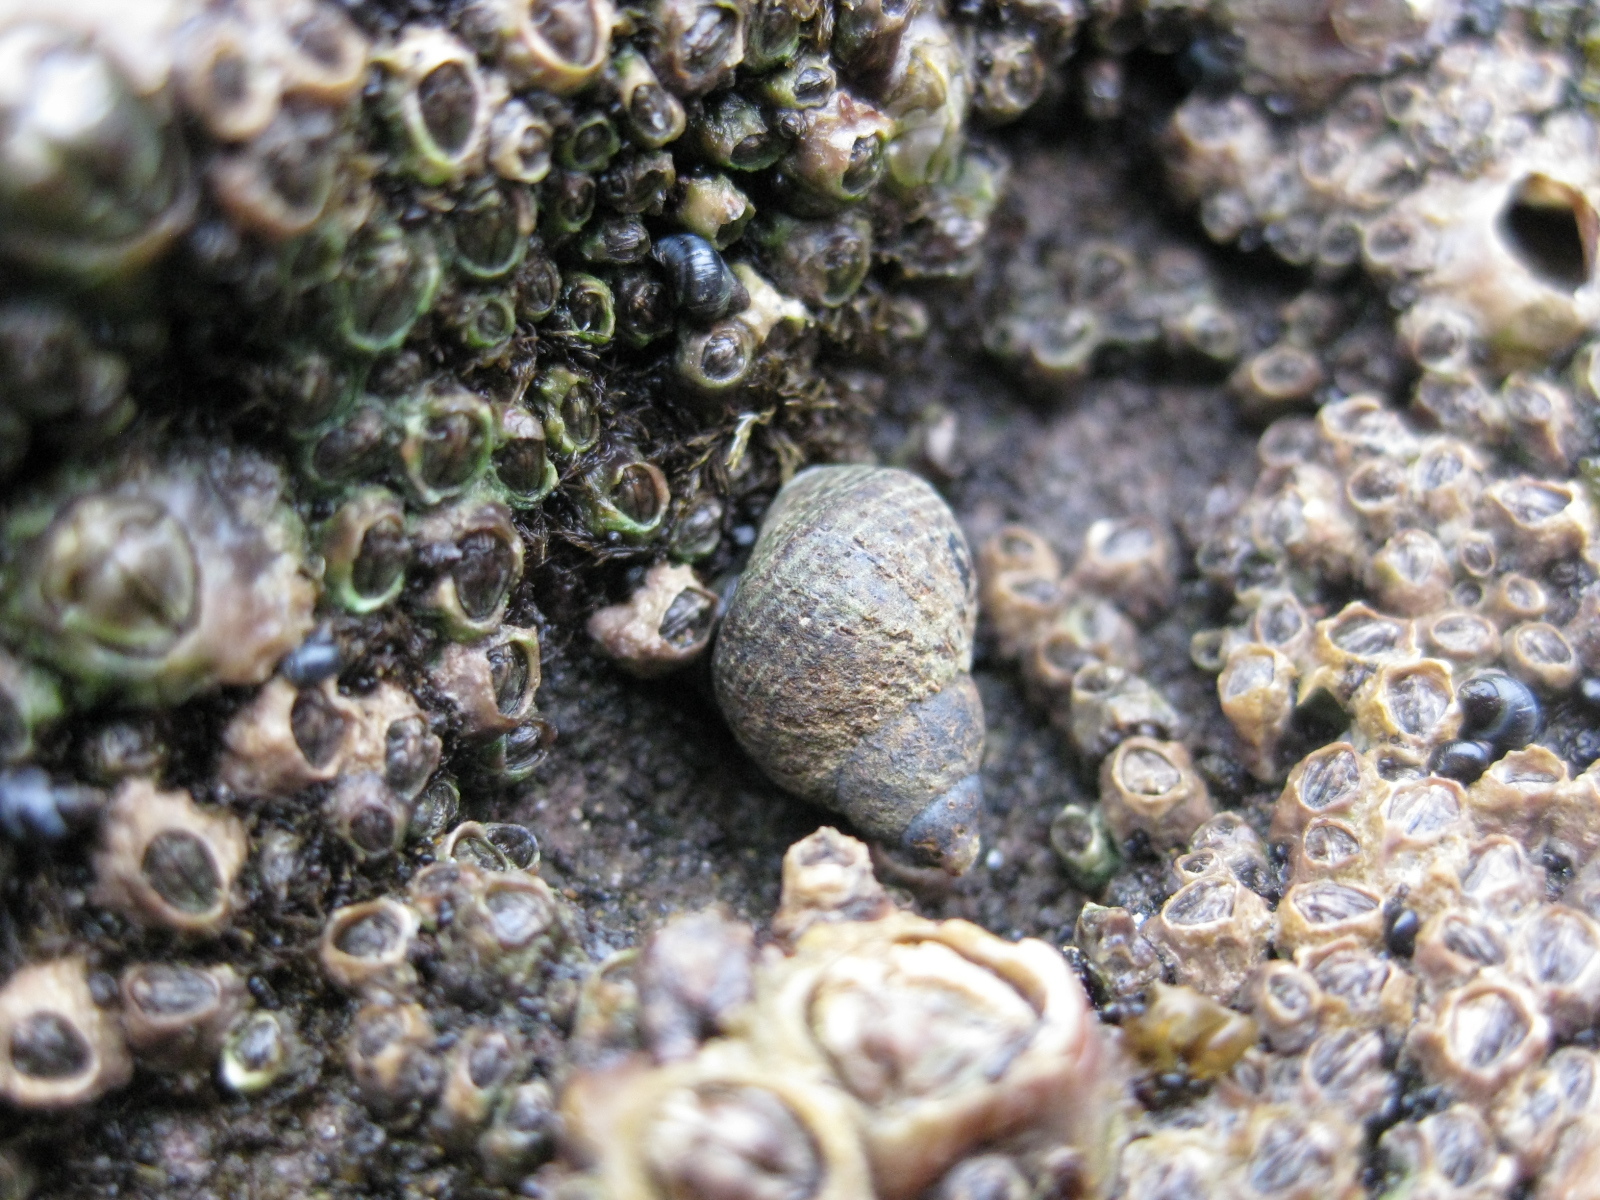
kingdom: Animalia
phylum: Mollusca
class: Gastropoda
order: Littorinimorpha
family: Littorinidae
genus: Austrolittorina
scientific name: Austrolittorina cincta
